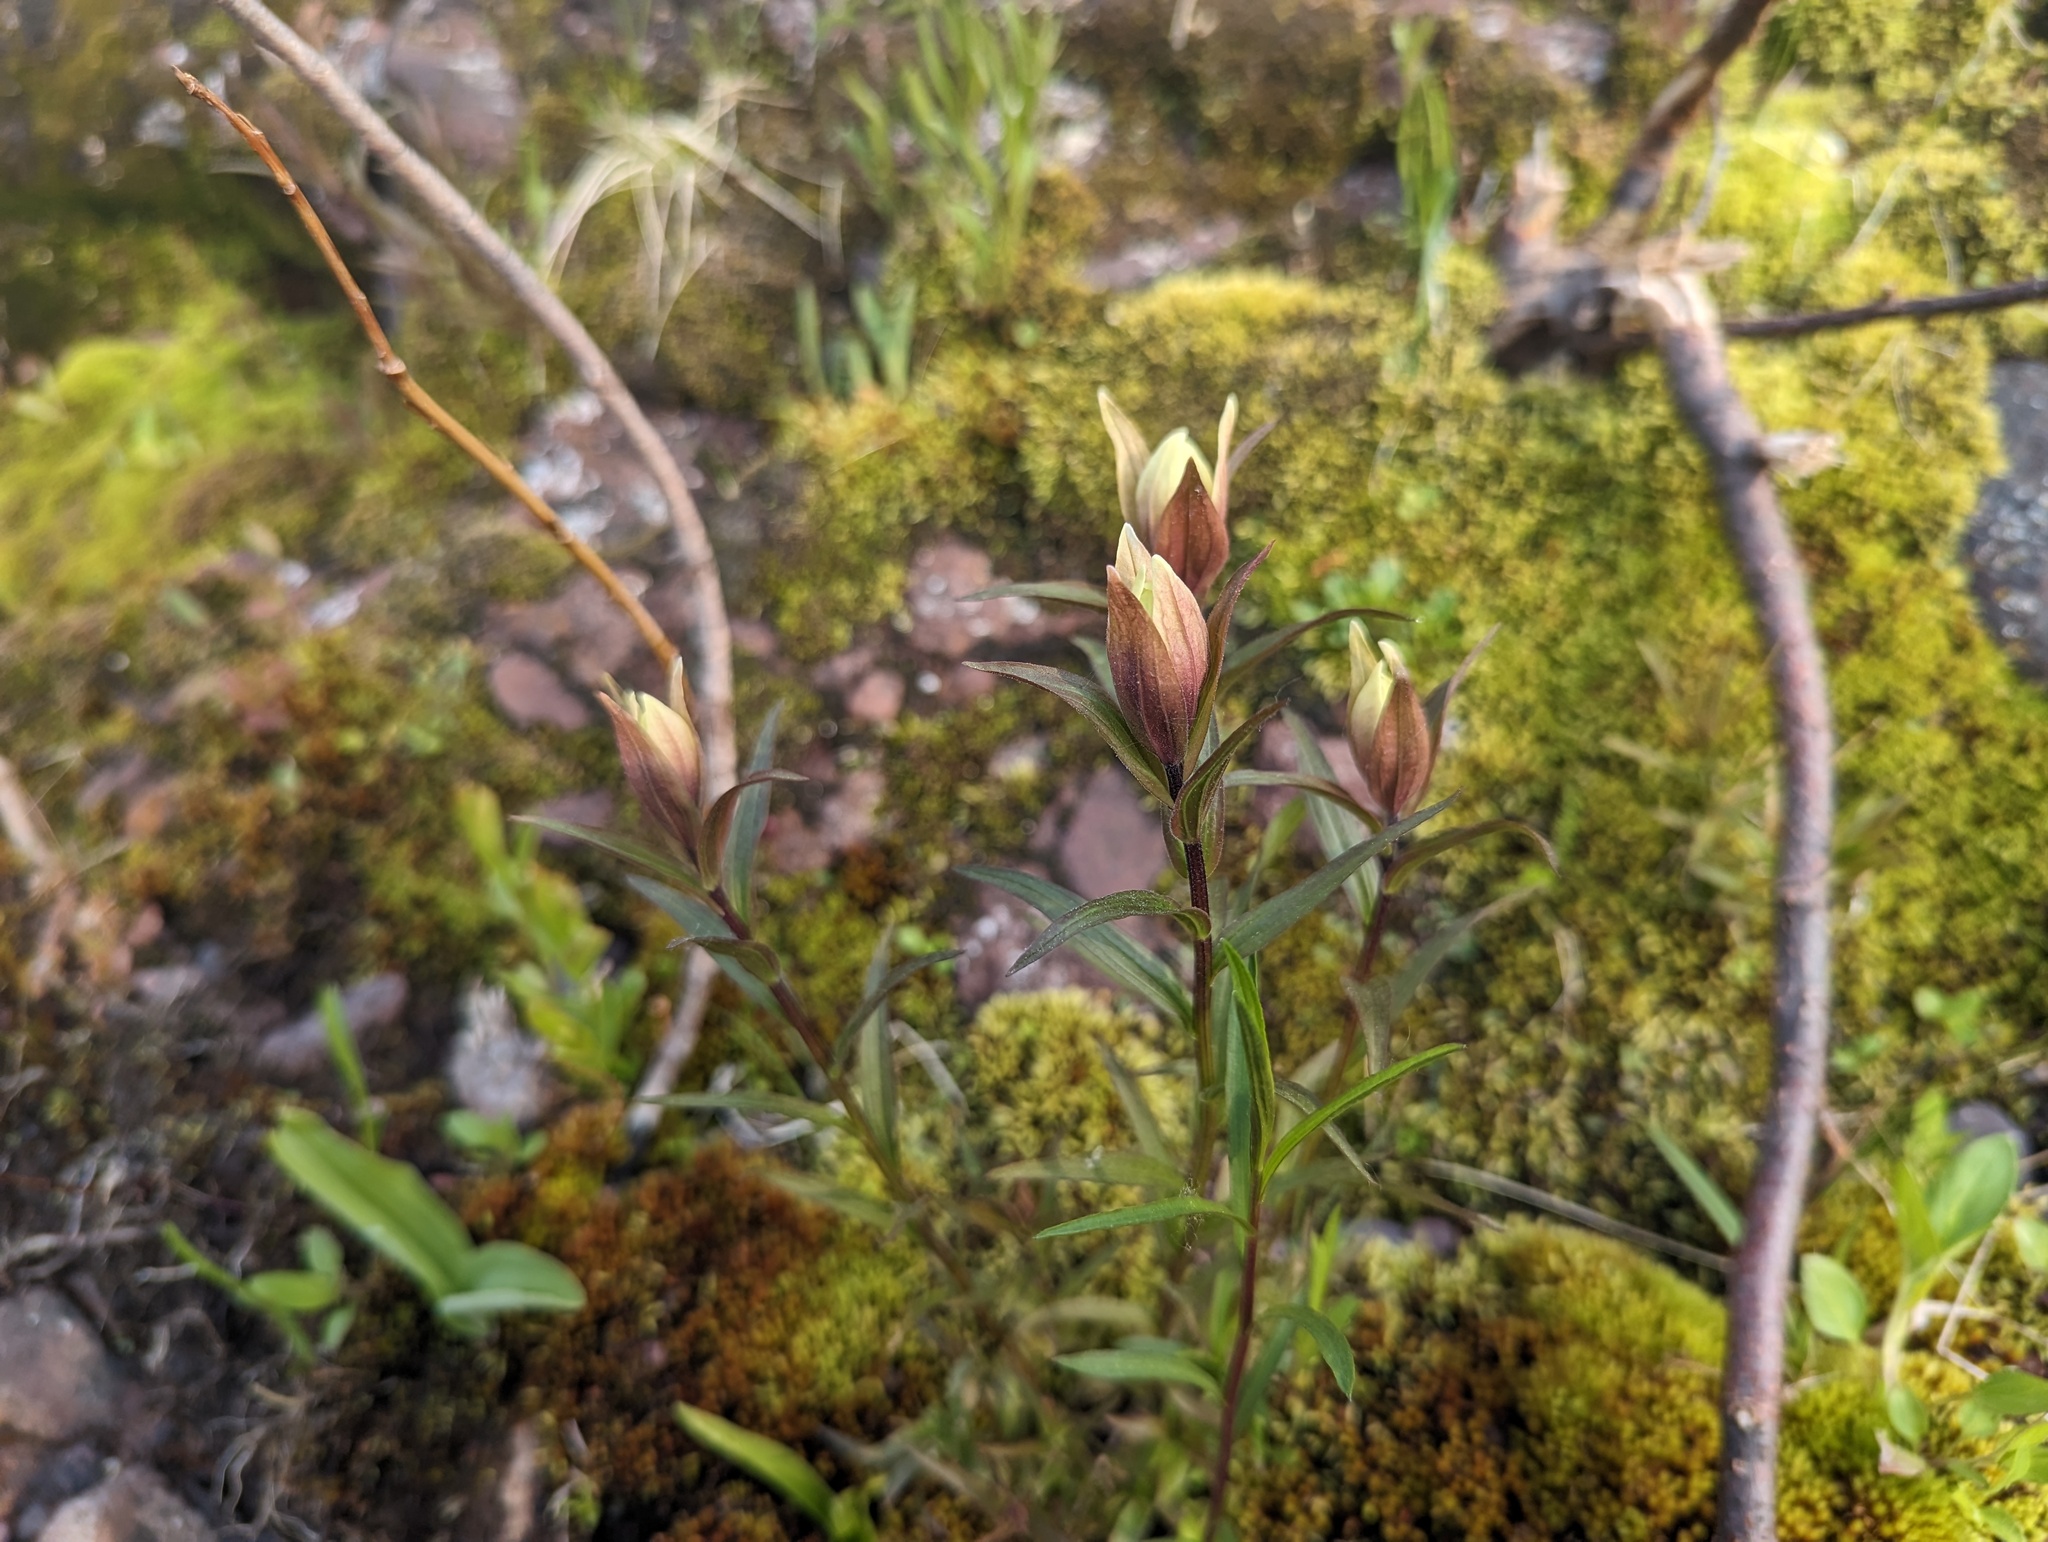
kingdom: Plantae
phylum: Tracheophyta
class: Magnoliopsida
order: Lamiales
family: Orobanchaceae
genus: Castilleja
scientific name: Castilleja septentrionalis
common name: Northeastern paintbrush
